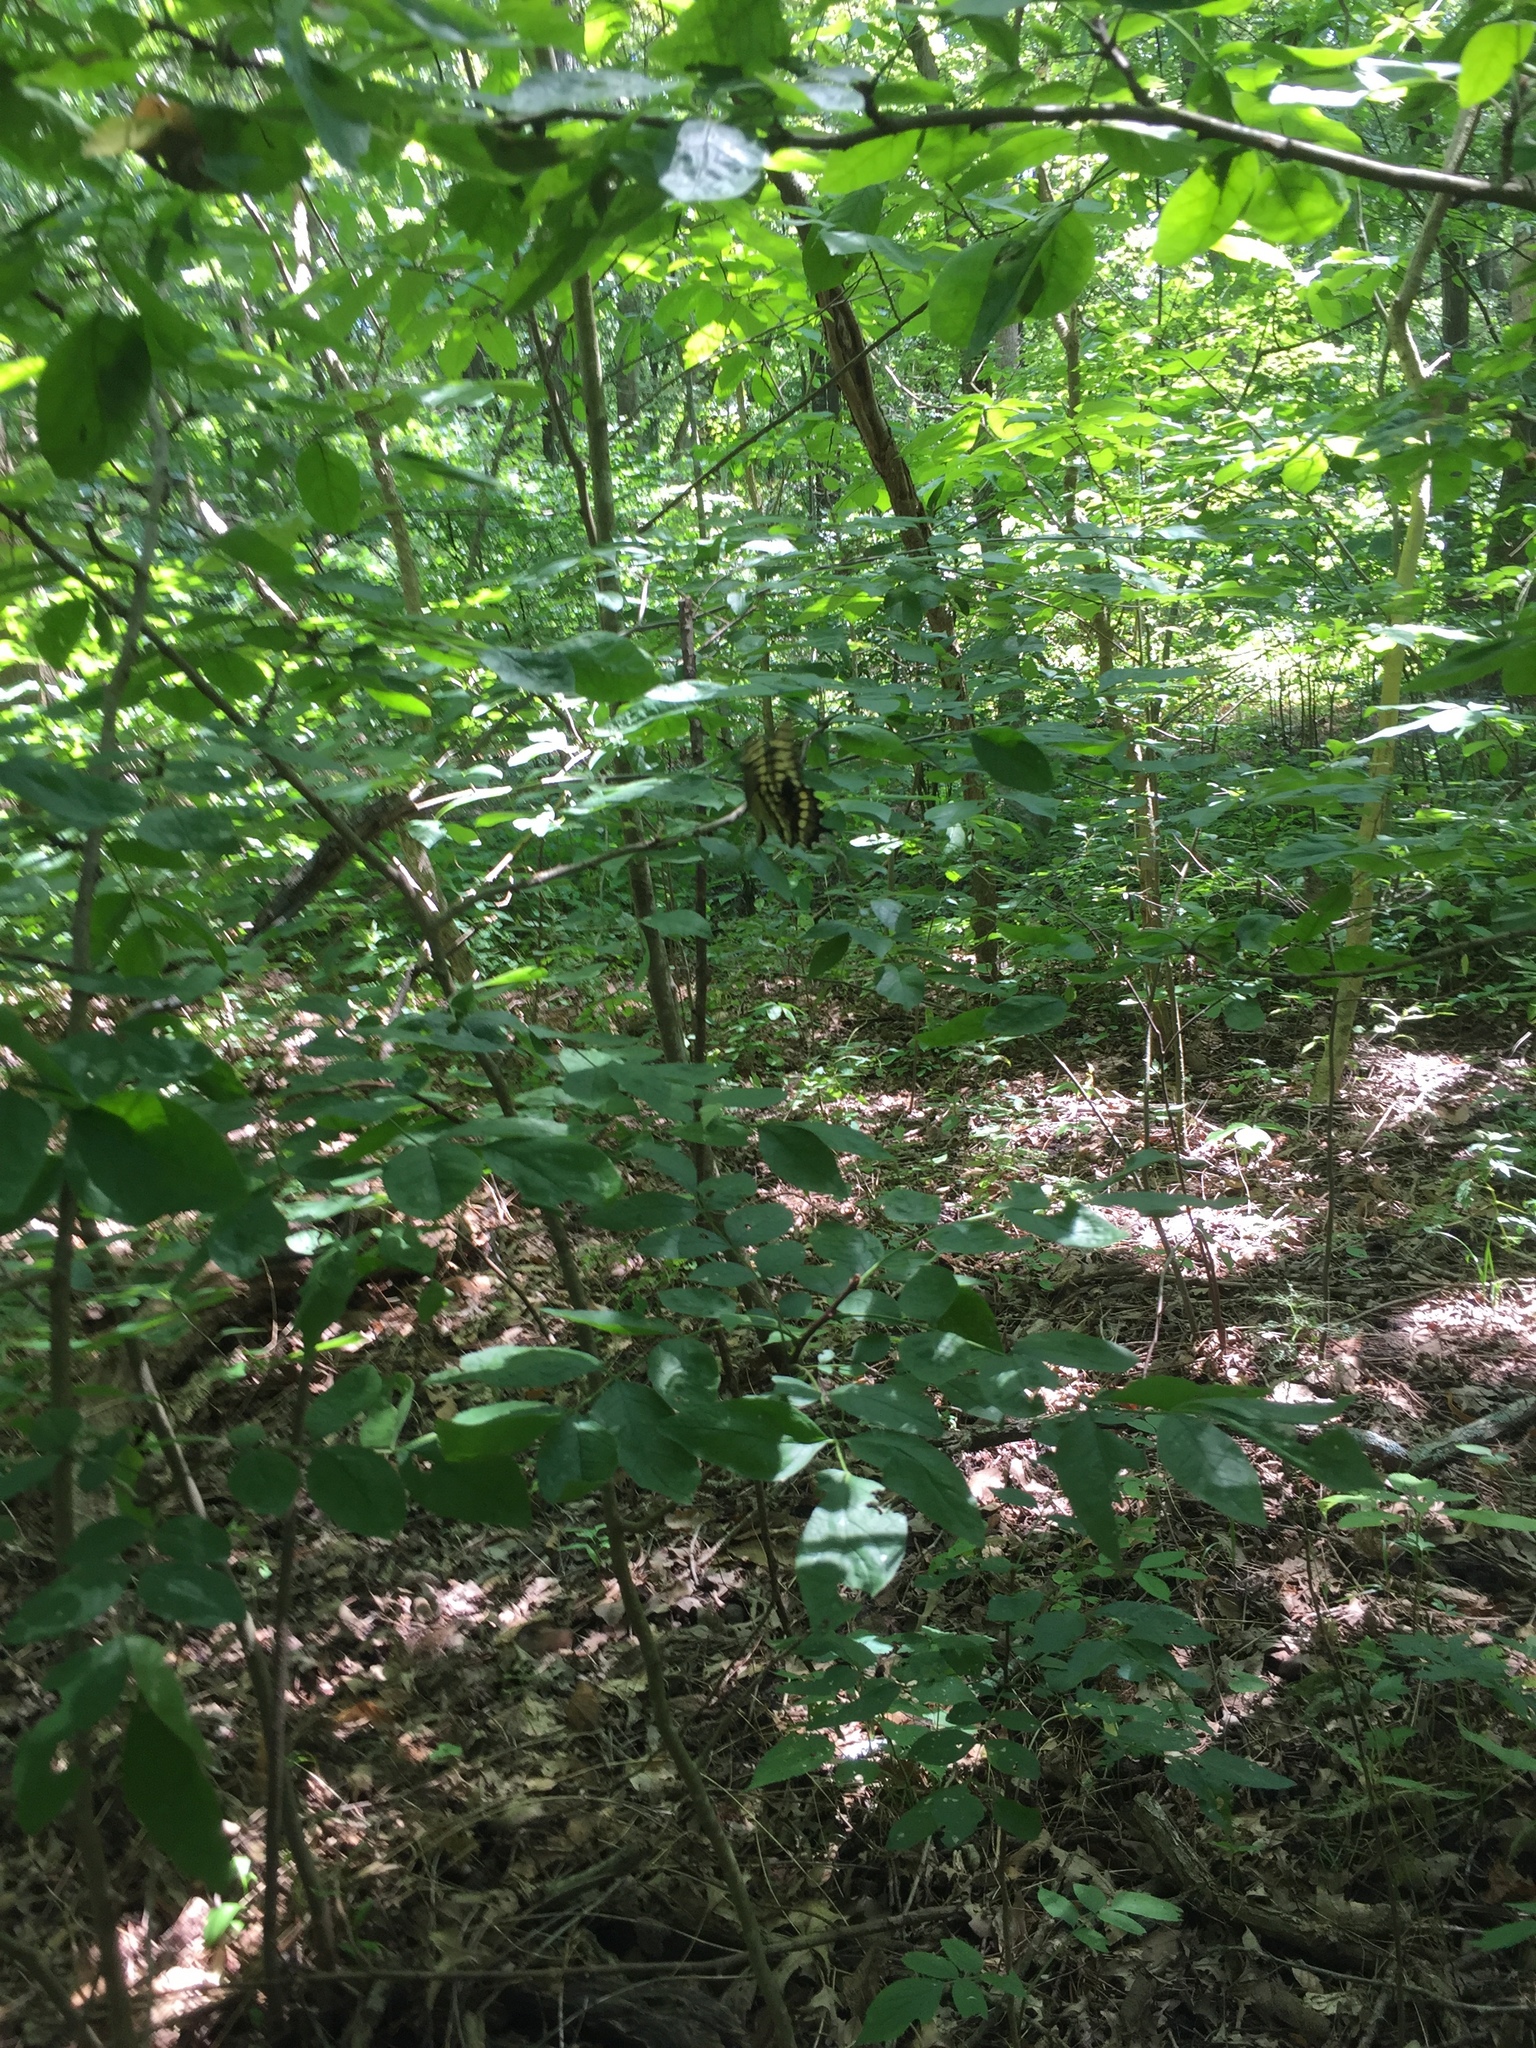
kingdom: Animalia
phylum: Arthropoda
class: Insecta
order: Lepidoptera
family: Papilionidae
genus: Papilio
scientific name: Papilio cresphontes
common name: Giant swallowtail
